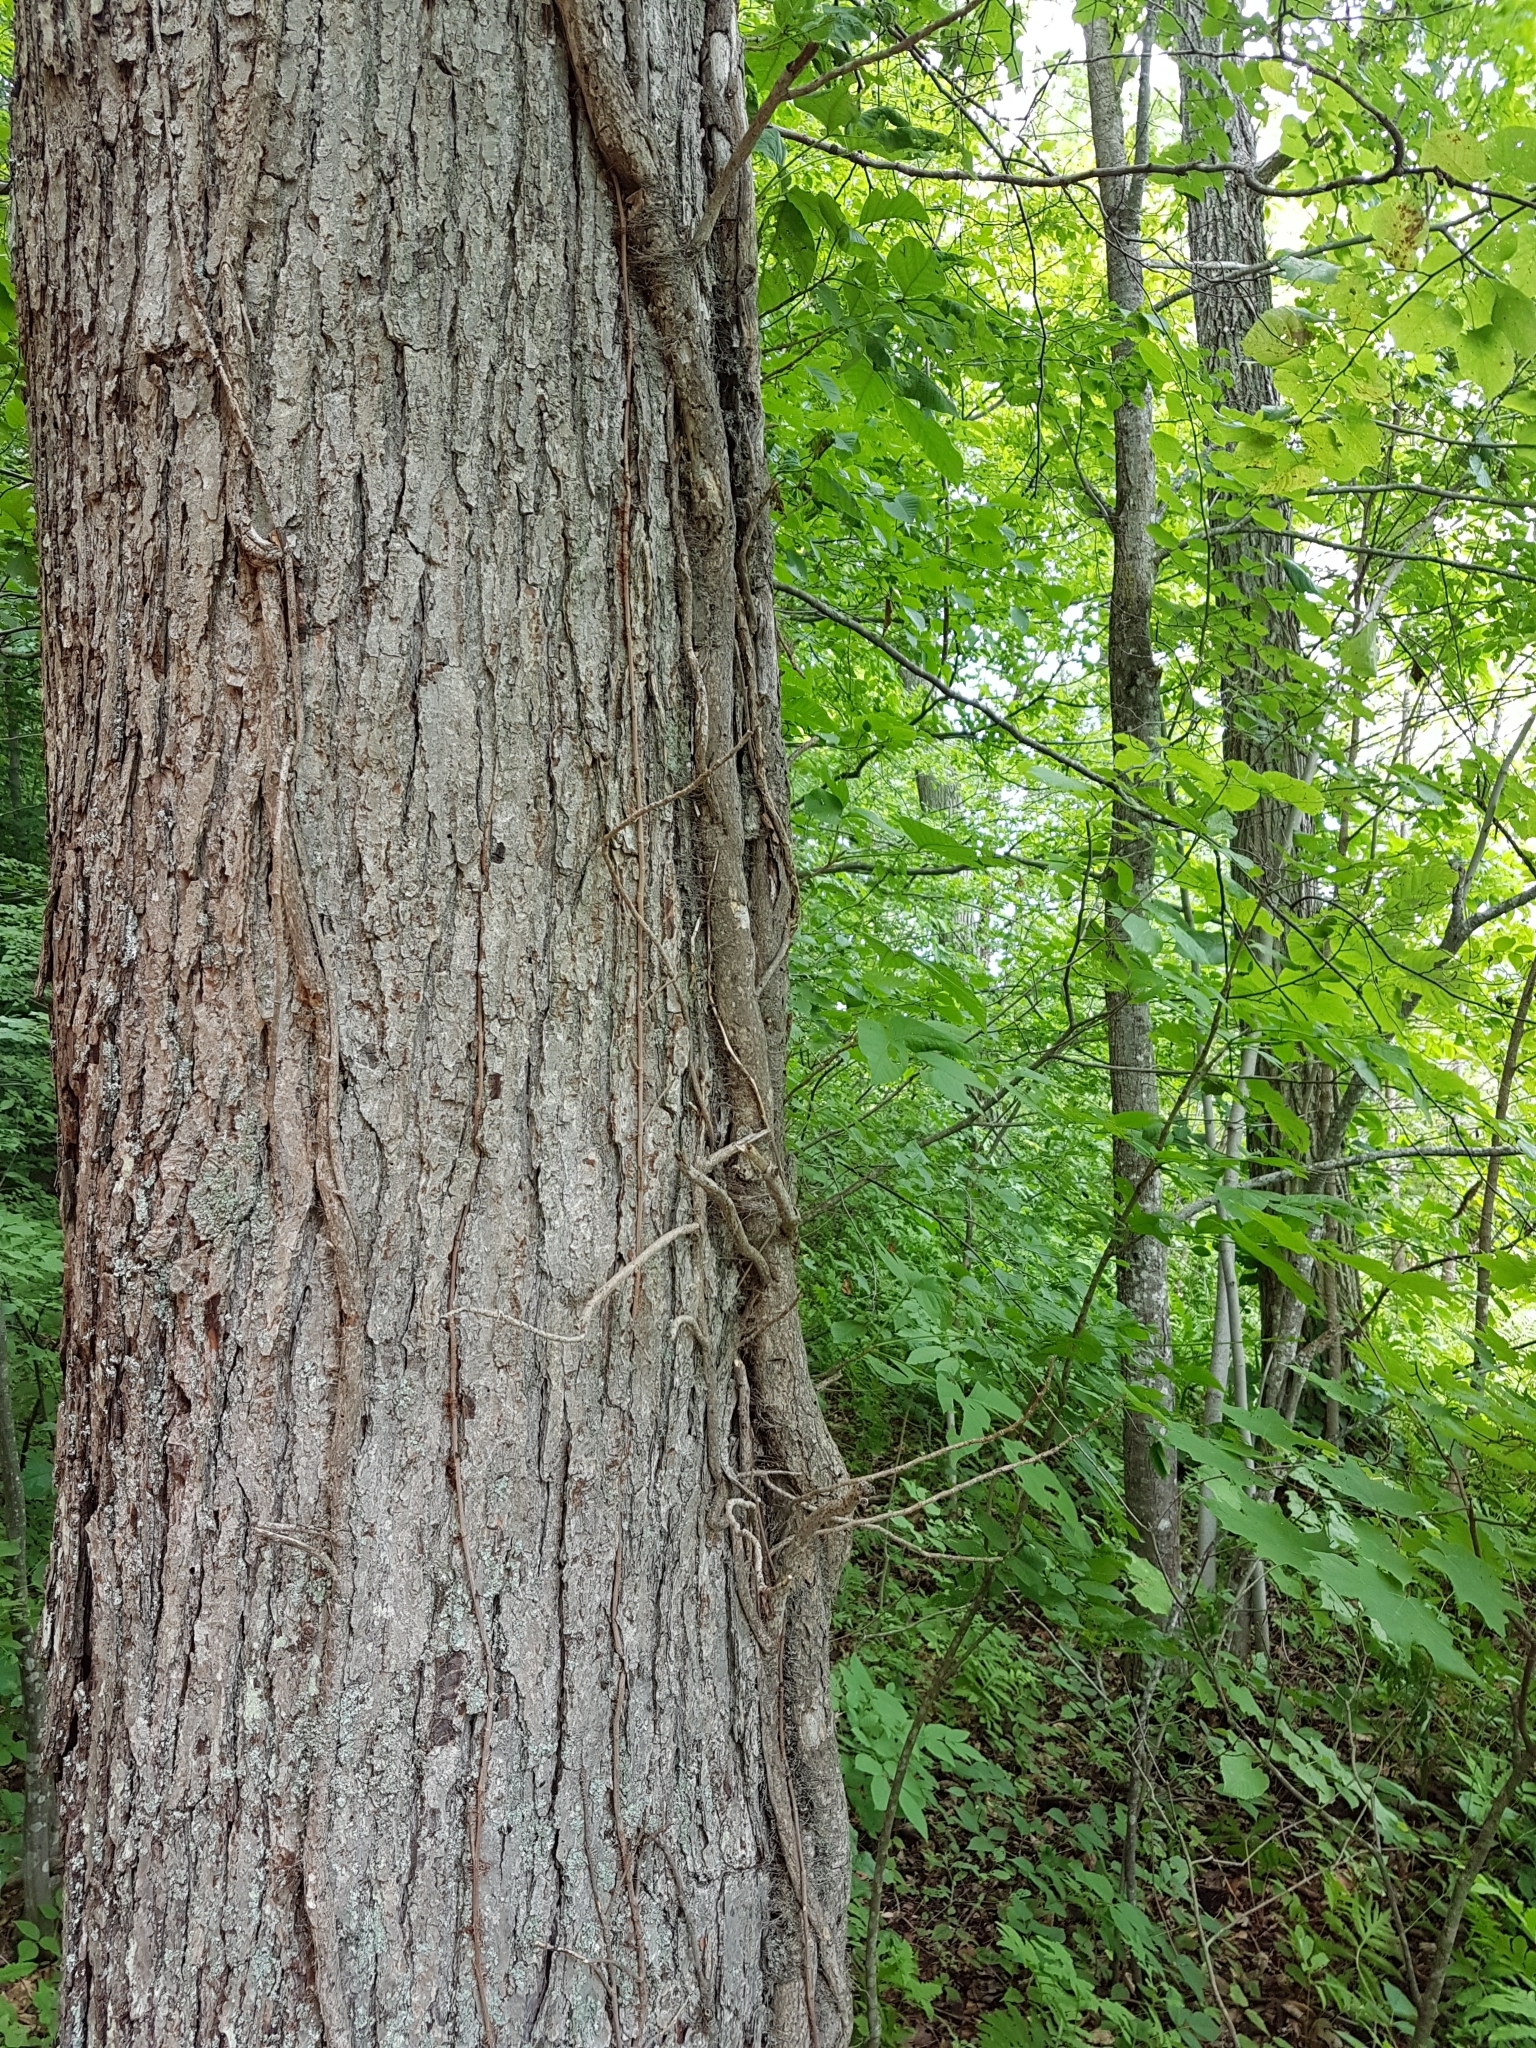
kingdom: Plantae
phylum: Tracheophyta
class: Magnoliopsida
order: Sapindales
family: Anacardiaceae
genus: Toxicodendron
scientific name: Toxicodendron radicans
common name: Poison ivy
